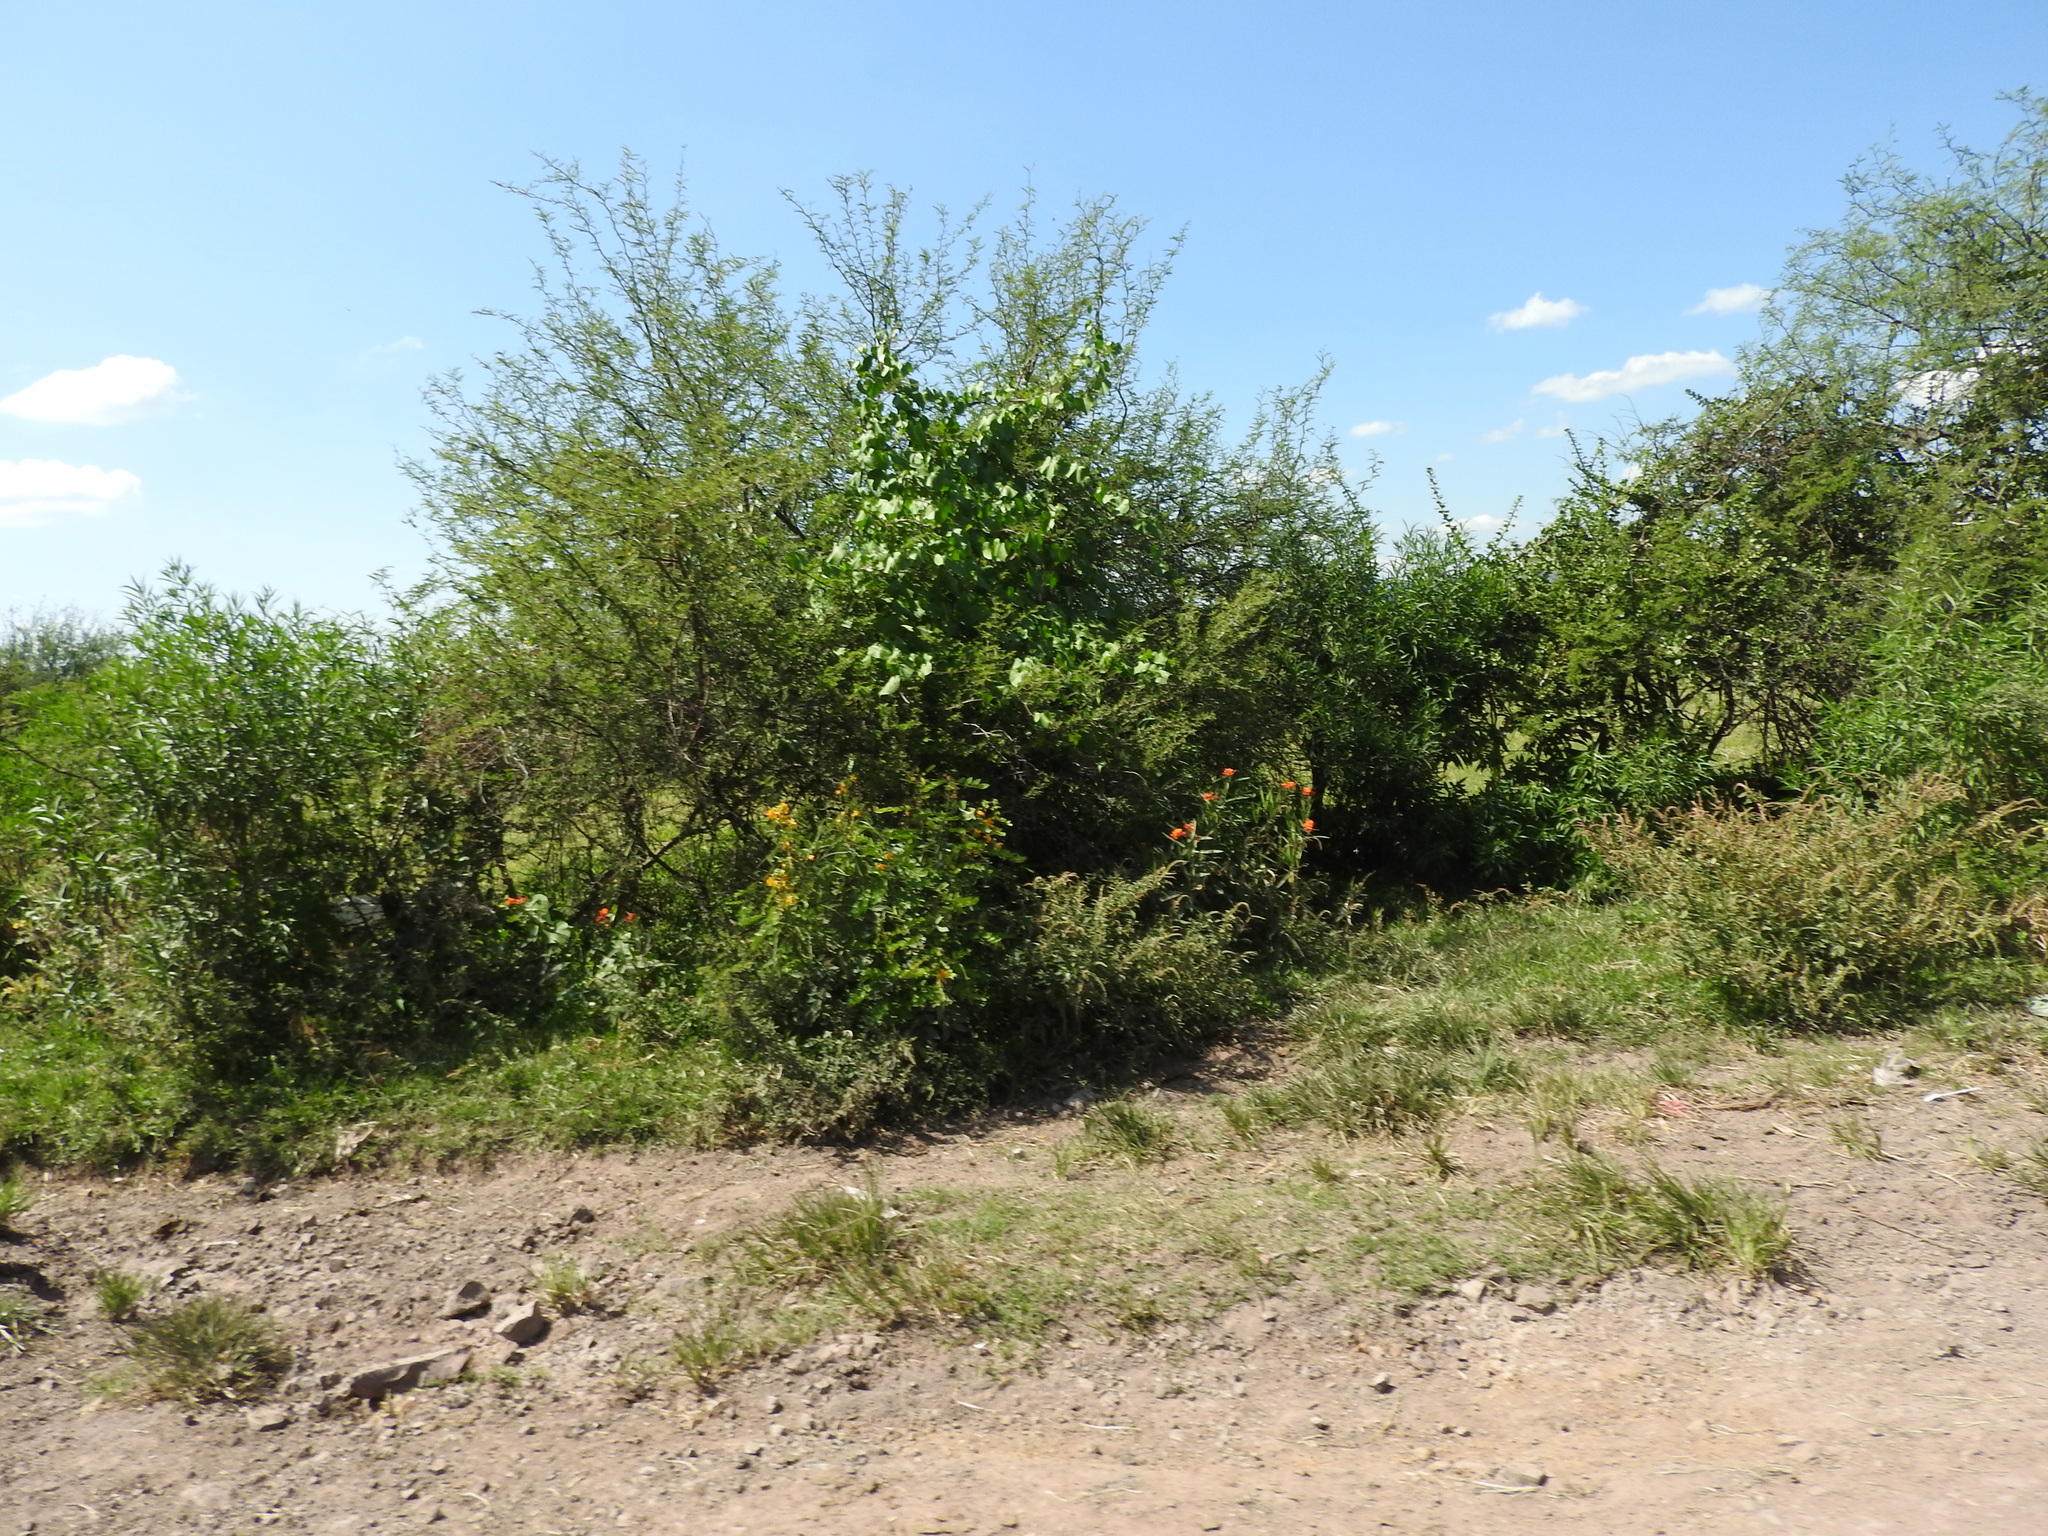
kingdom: Plantae
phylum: Tracheophyta
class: Magnoliopsida
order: Gentianales
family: Apocynaceae
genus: Asclepias
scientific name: Asclepias curassavica
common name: Bloodflower
